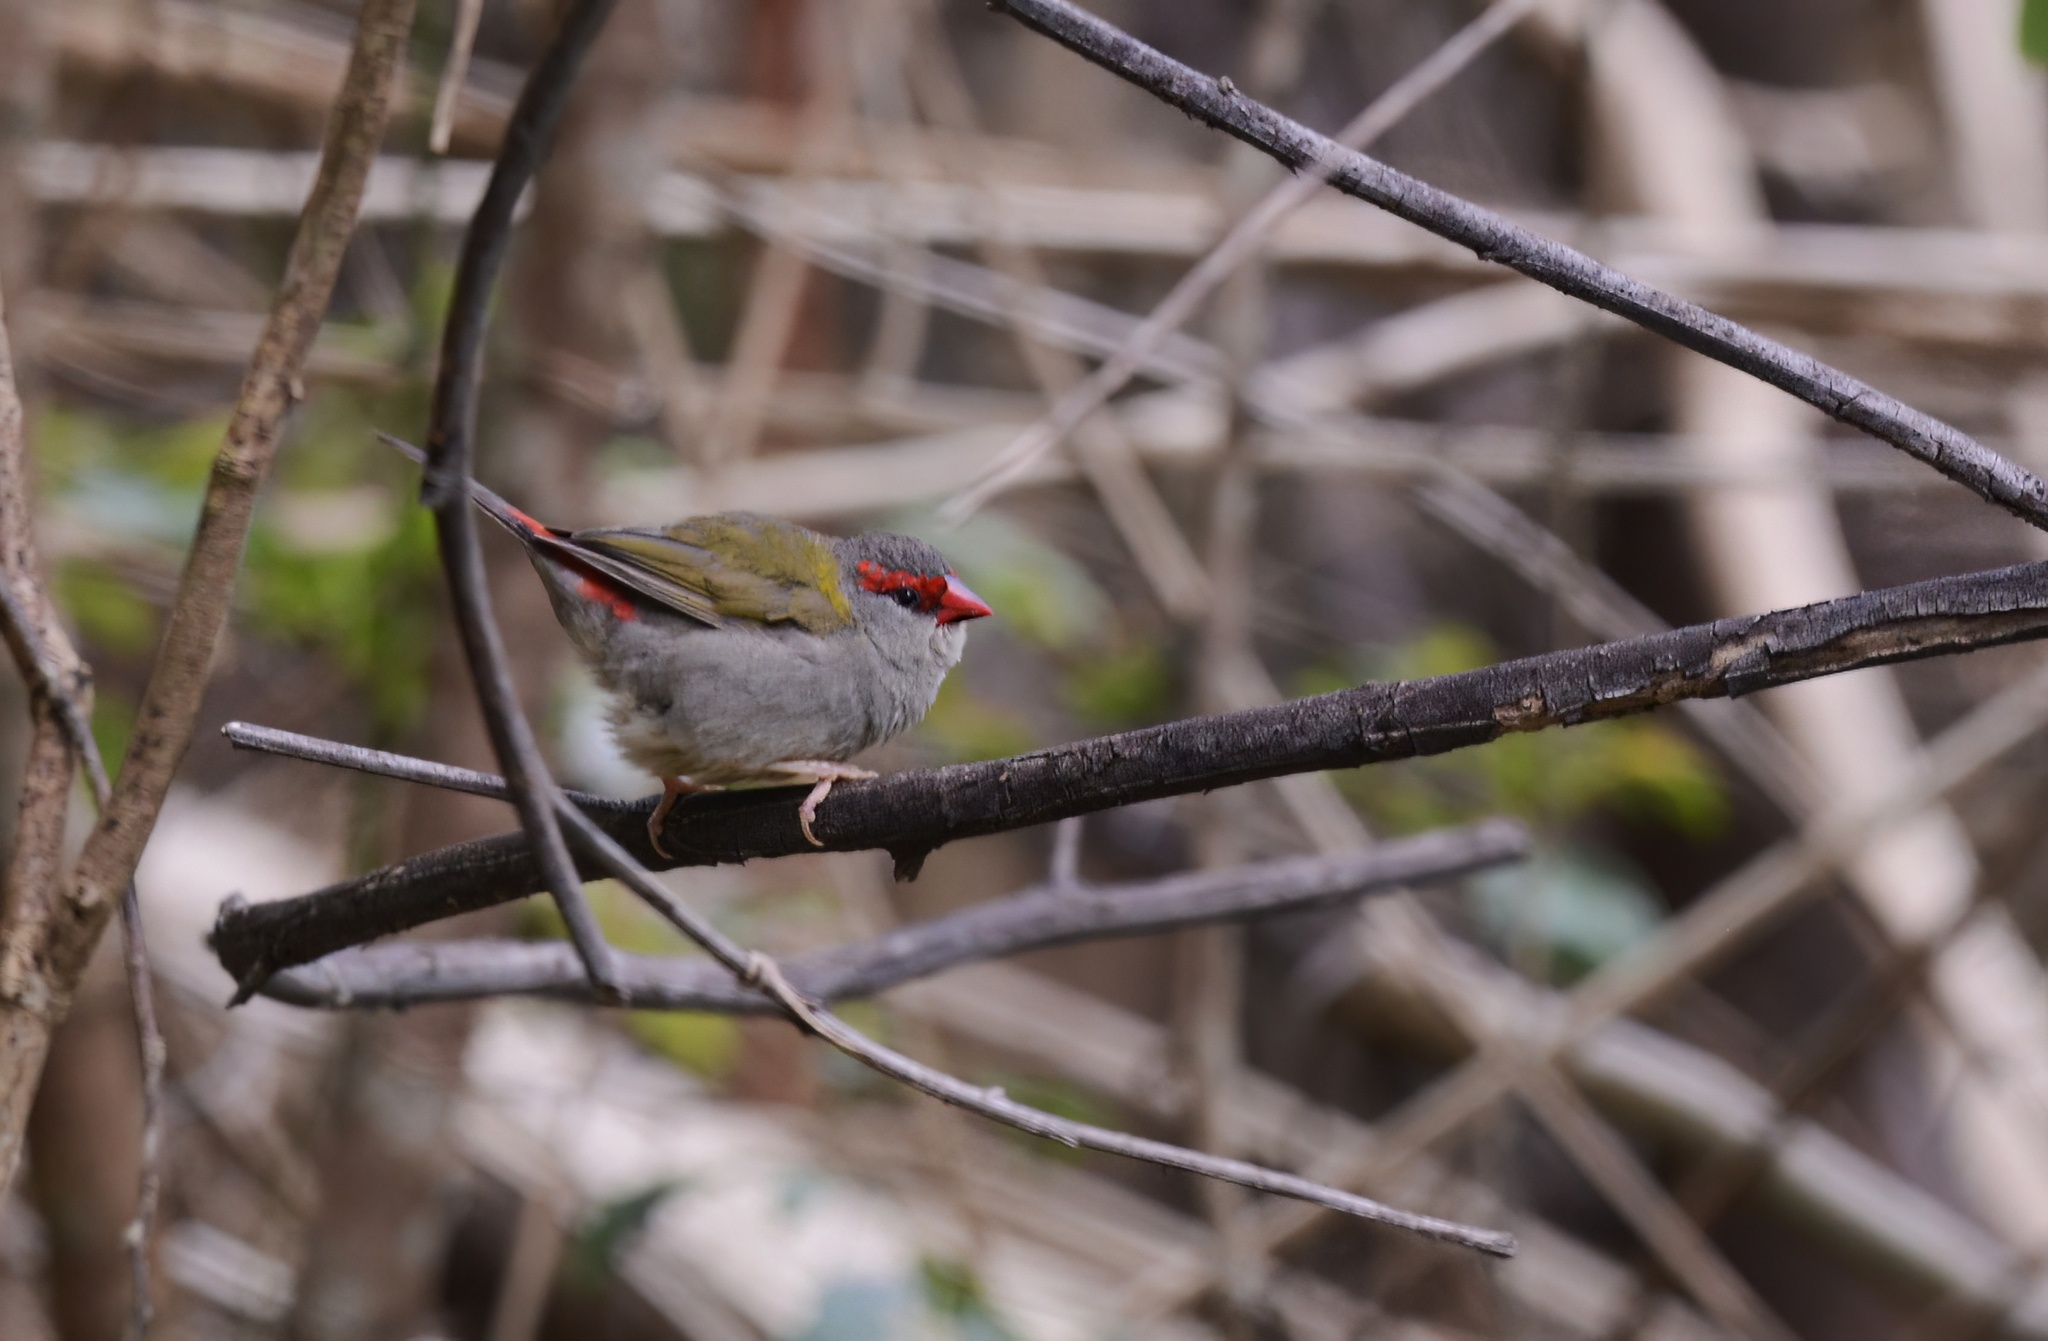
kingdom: Animalia
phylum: Chordata
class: Aves
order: Passeriformes
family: Estrildidae
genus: Neochmia
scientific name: Neochmia temporalis
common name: Red-browed finch
